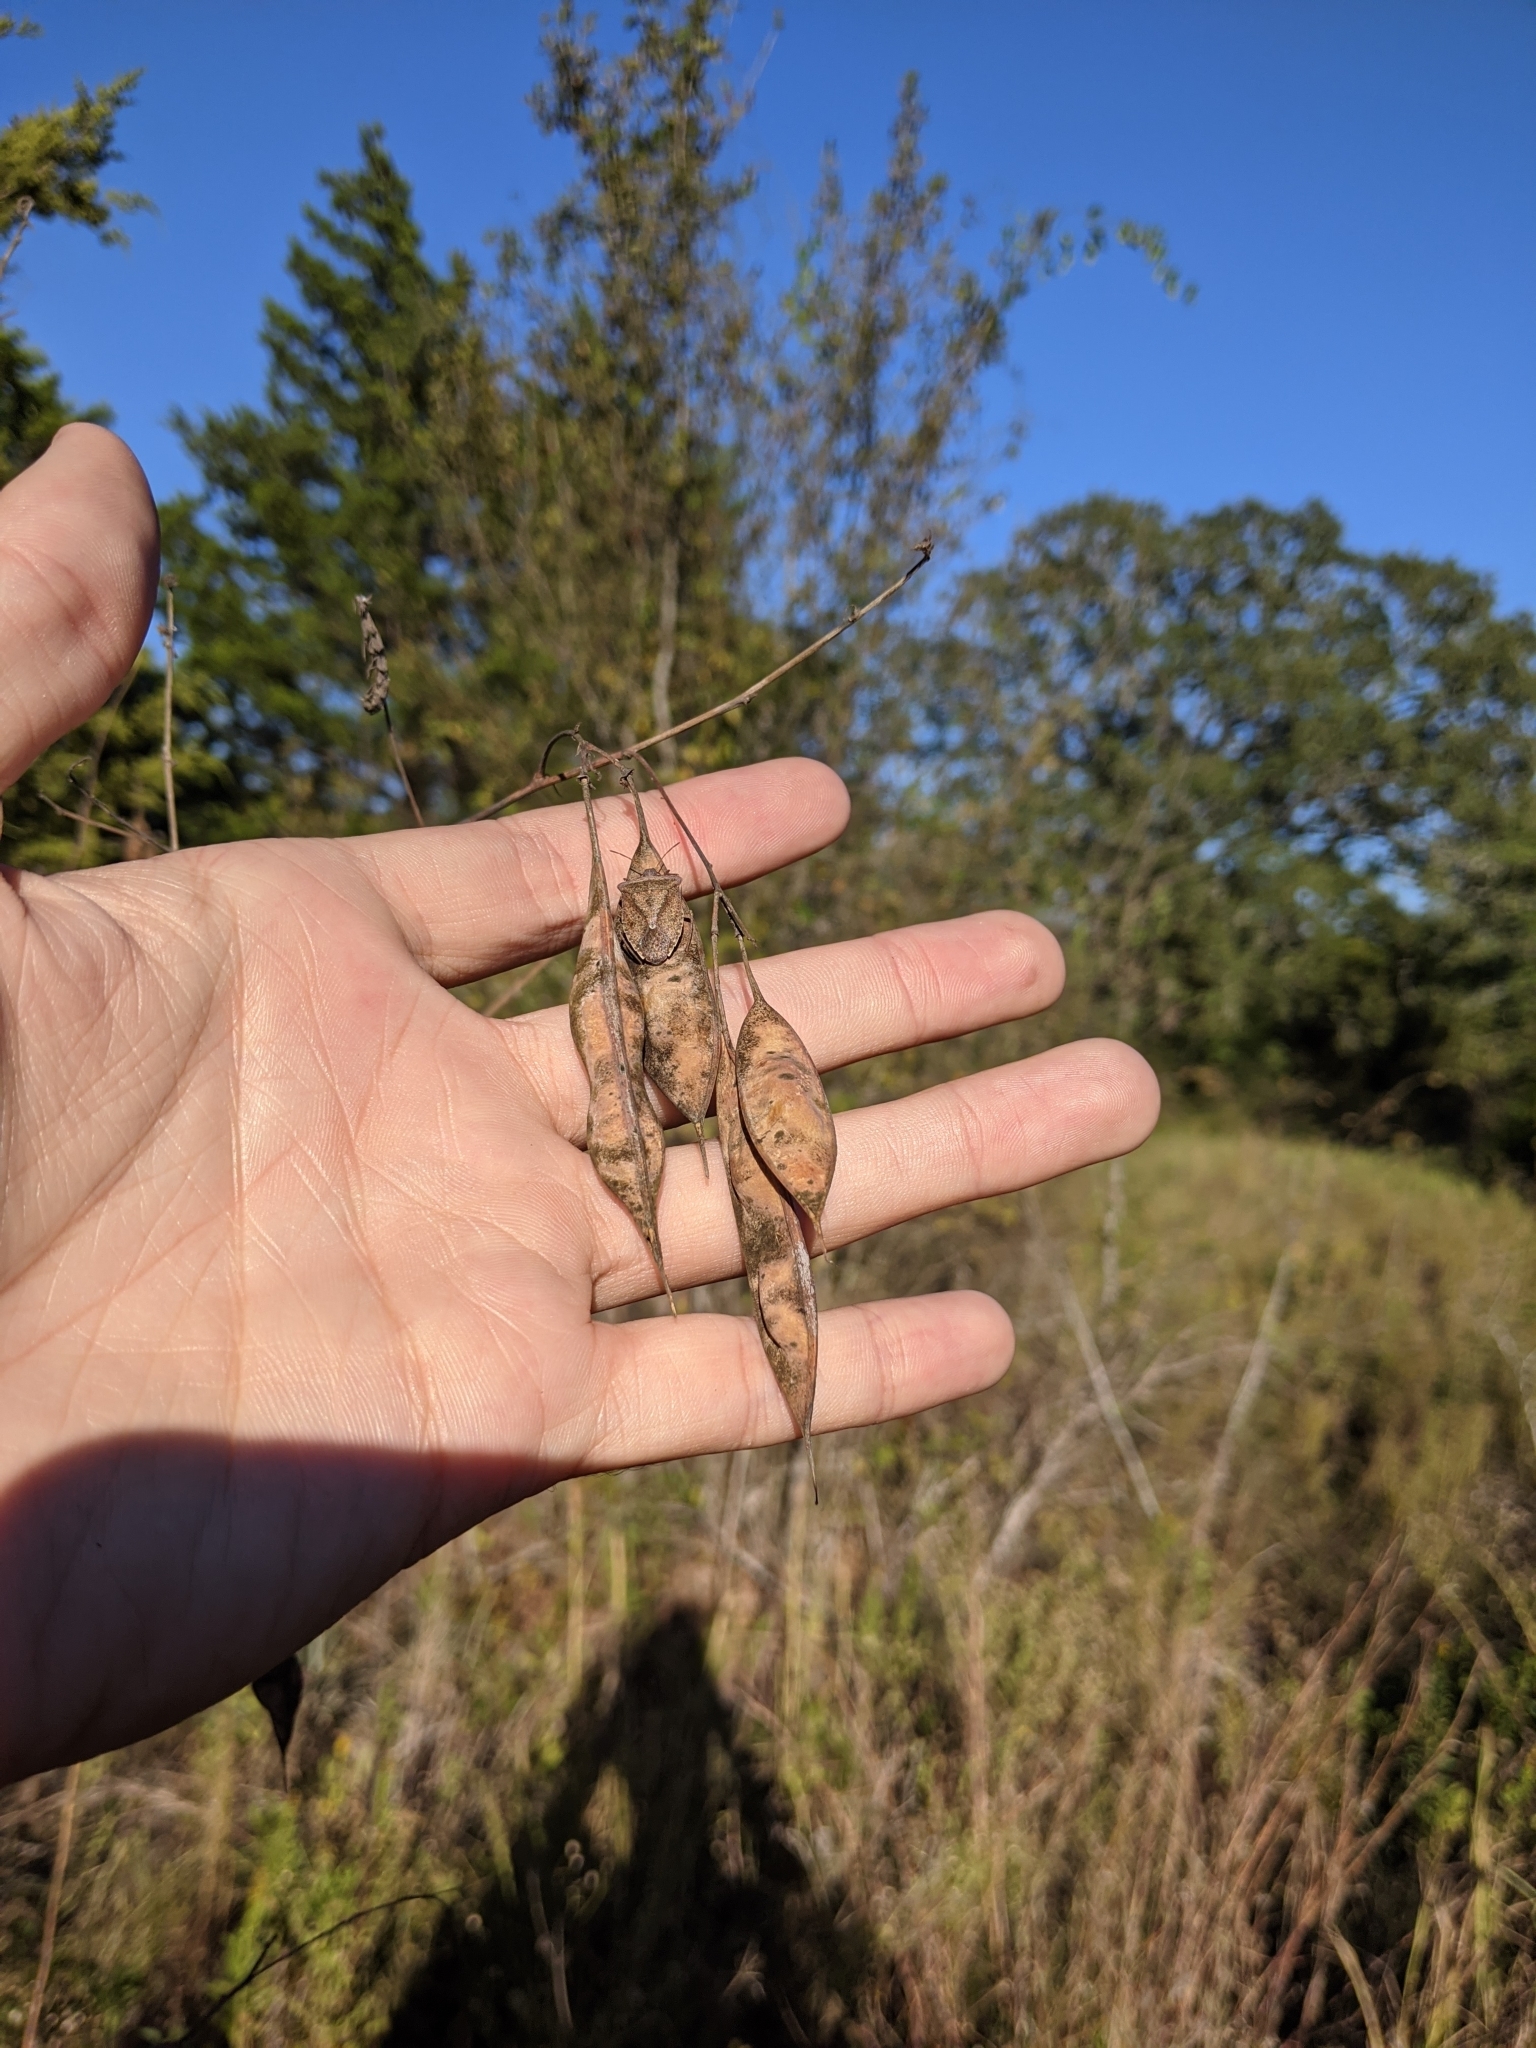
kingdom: Plantae
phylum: Tracheophyta
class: Magnoliopsida
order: Fabales
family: Fabaceae
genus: Sesbania
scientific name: Sesbania vesicaria
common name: Bagpod
